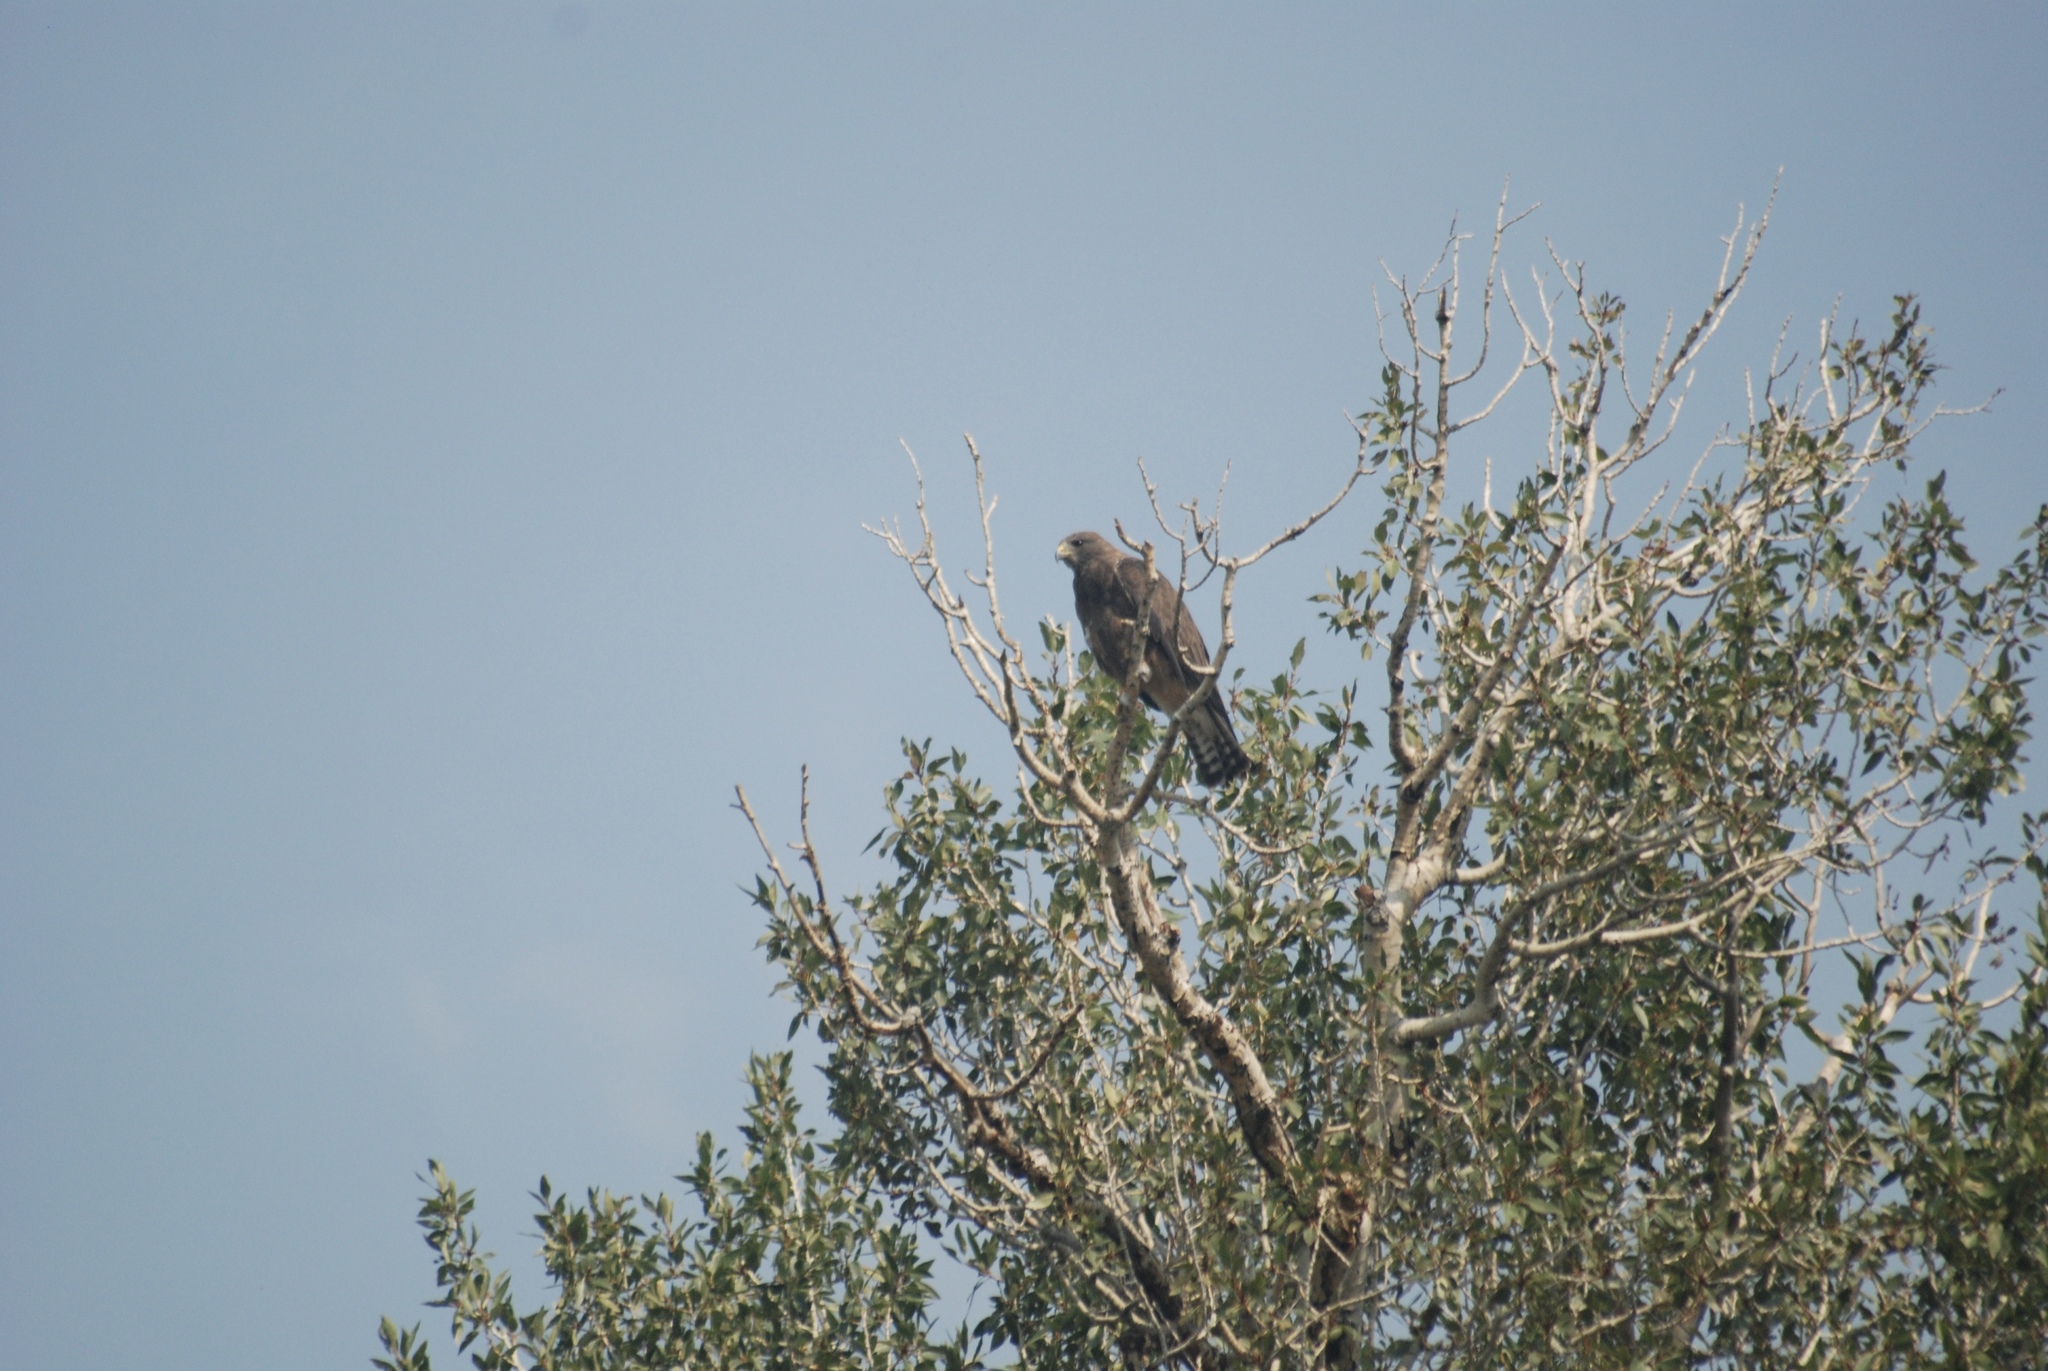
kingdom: Animalia
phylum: Chordata
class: Aves
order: Accipitriformes
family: Accipitridae
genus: Buteo
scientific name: Buteo swainsoni
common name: Swainson's hawk
